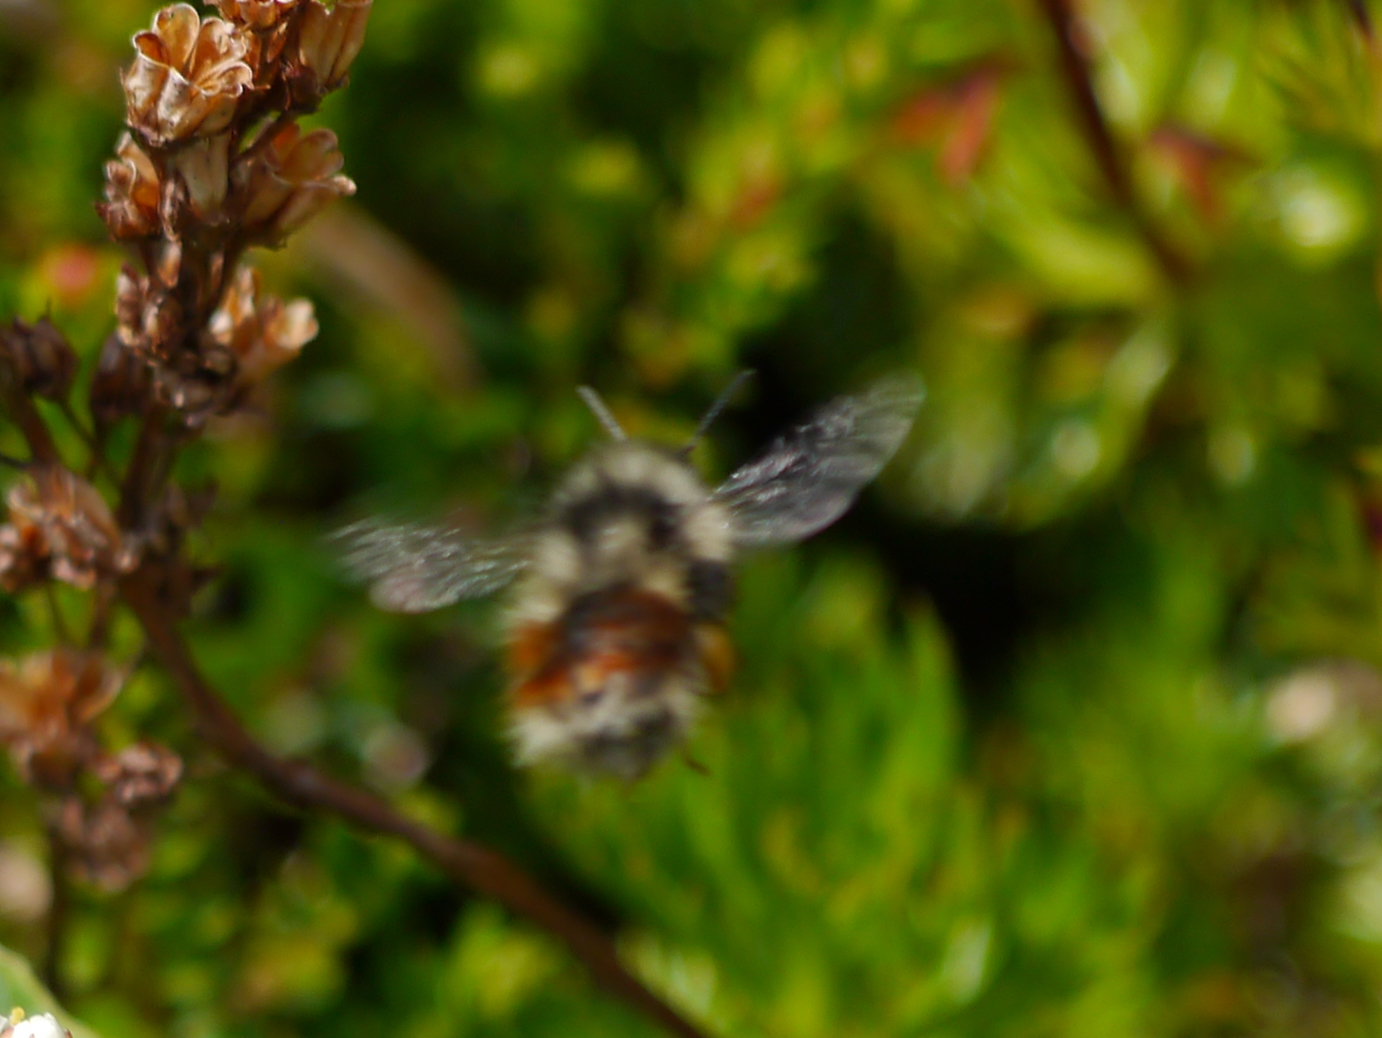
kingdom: Animalia
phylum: Arthropoda
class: Insecta
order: Hymenoptera
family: Apidae
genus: Bombus
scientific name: Bombus sylvicola
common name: Forest bumble bee
